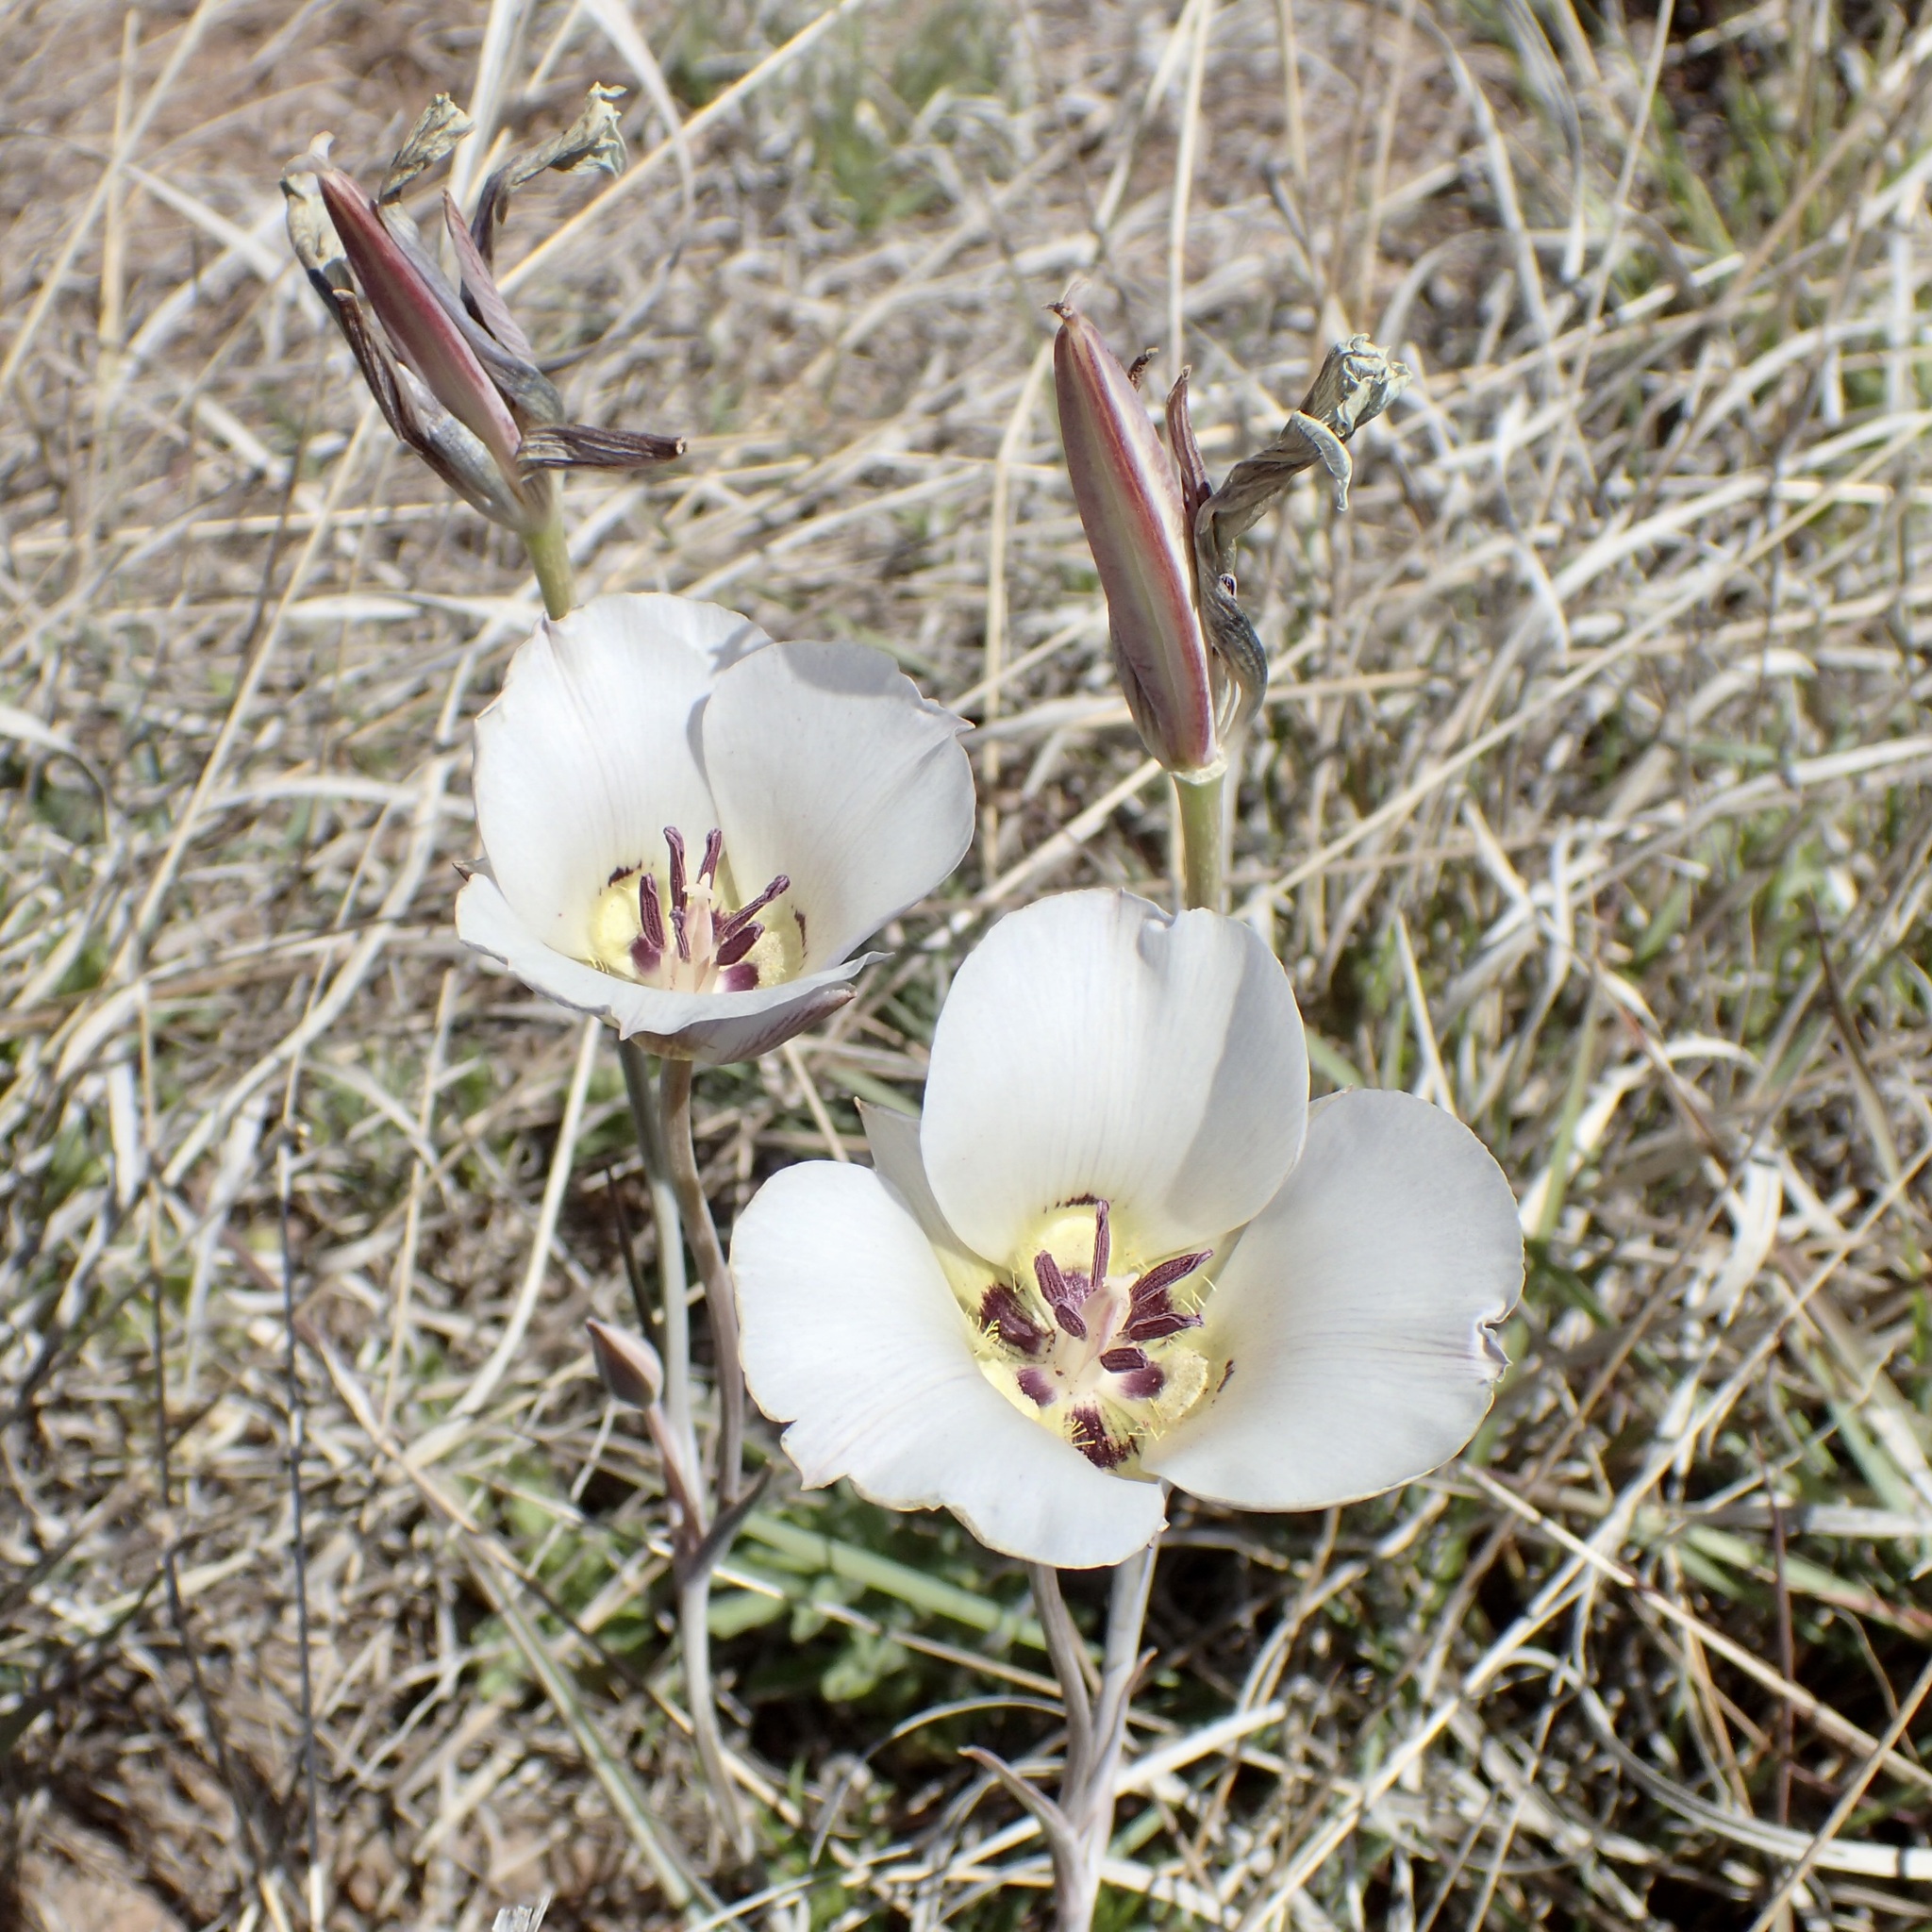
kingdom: Plantae
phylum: Tracheophyta
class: Liliopsida
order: Liliales
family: Liliaceae
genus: Calochortus
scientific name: Calochortus ambiguus
